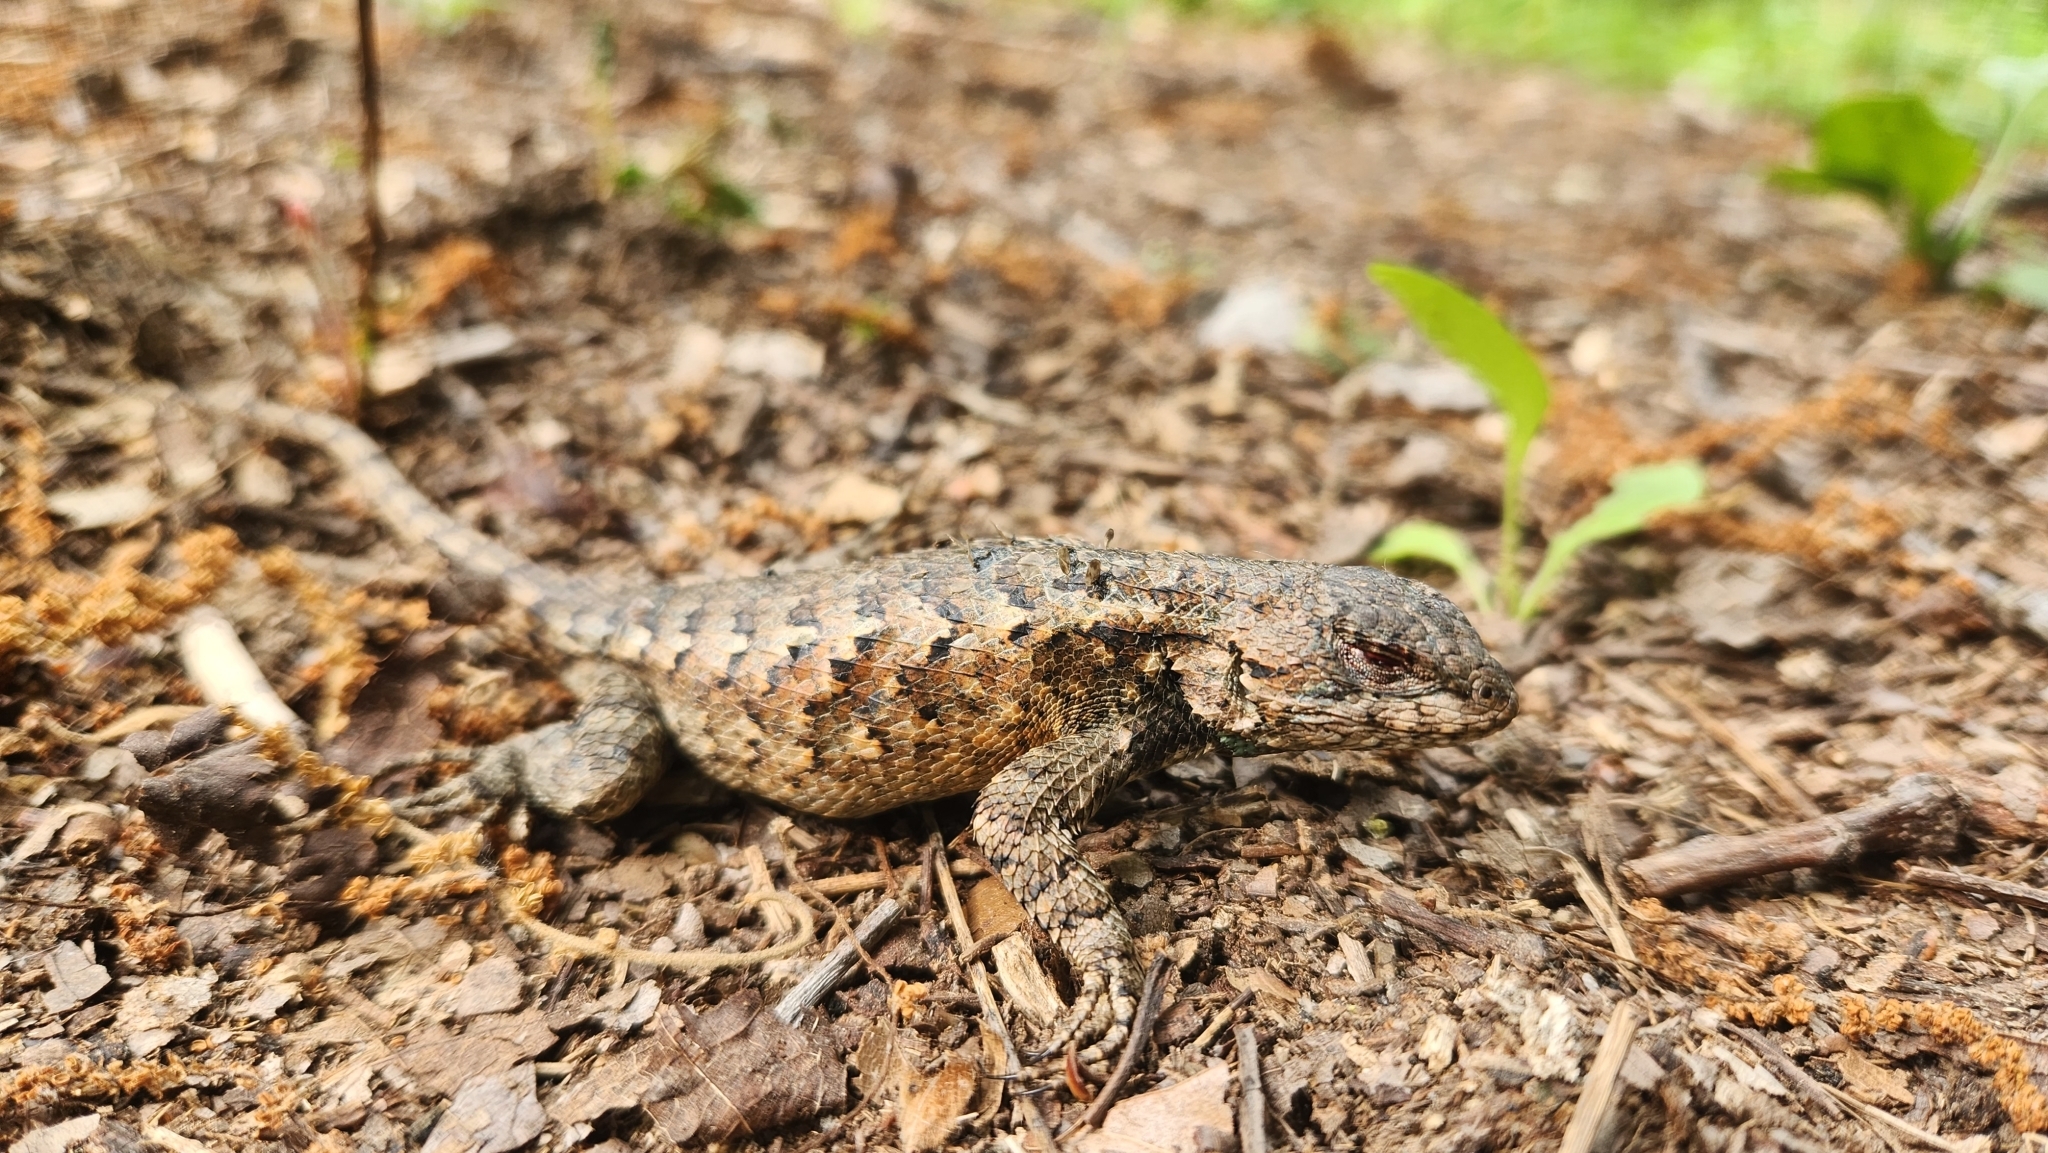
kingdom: Animalia
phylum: Chordata
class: Squamata
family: Phrynosomatidae
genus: Sceloporus
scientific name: Sceloporus undulatus
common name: Eastern fence lizard
